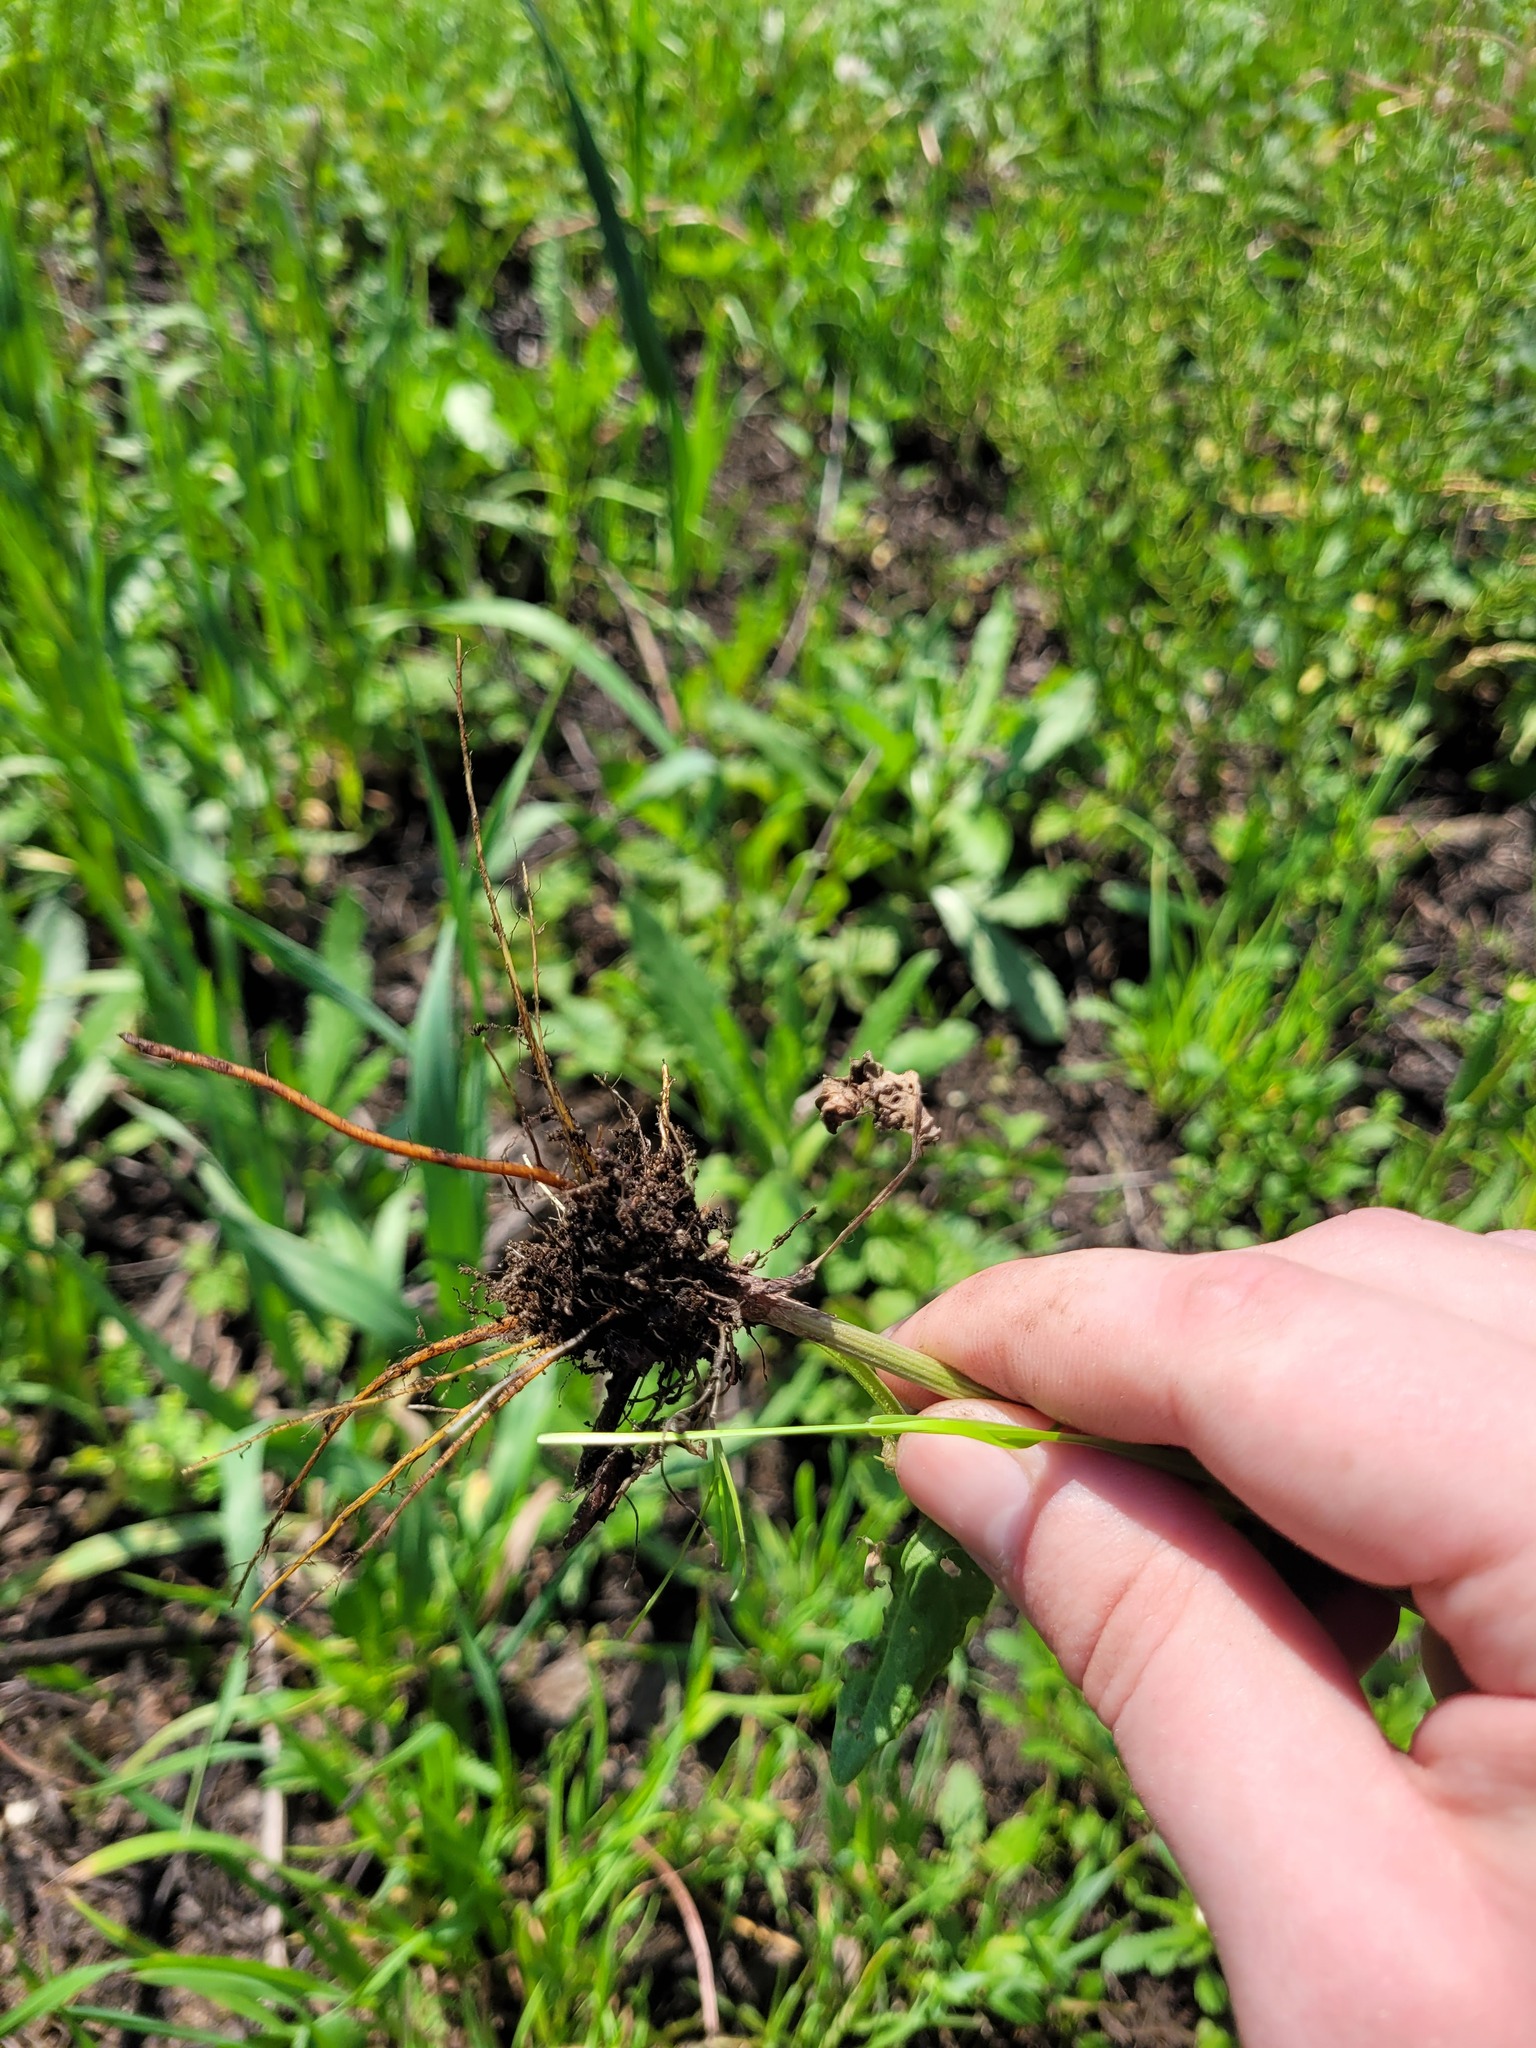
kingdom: Plantae
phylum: Tracheophyta
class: Magnoliopsida
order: Caryophyllales
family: Polygonaceae
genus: Rumex
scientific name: Rumex acetosa
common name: Garden sorrel
